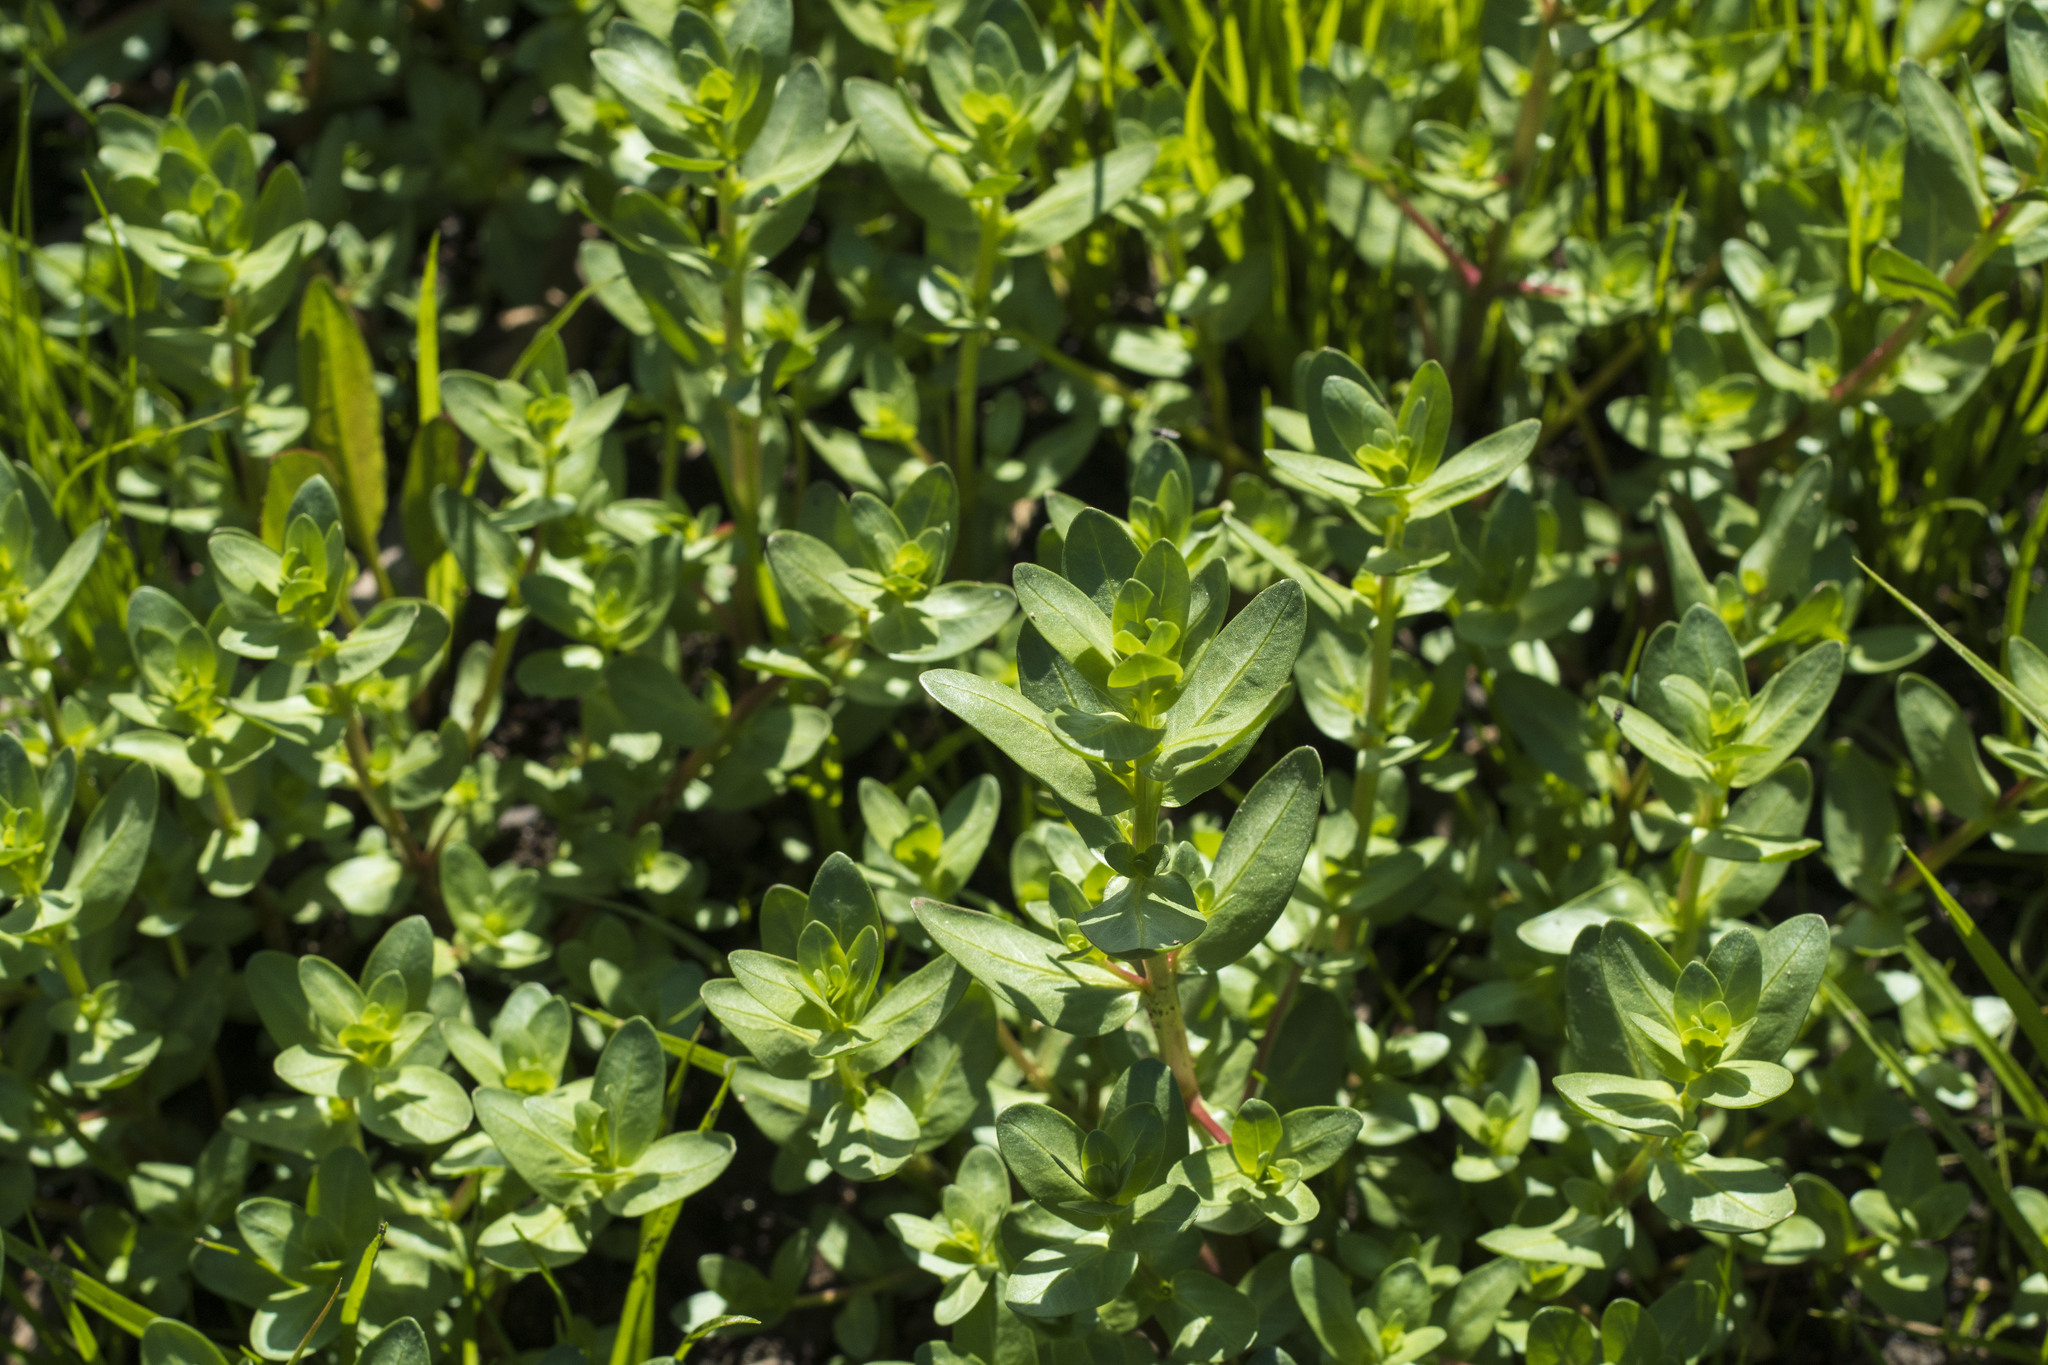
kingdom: Plantae
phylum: Tracheophyta
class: Magnoliopsida
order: Myrtales
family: Lythraceae
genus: Lythrum
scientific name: Lythrum hyssopifolia
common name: Grass-poly
